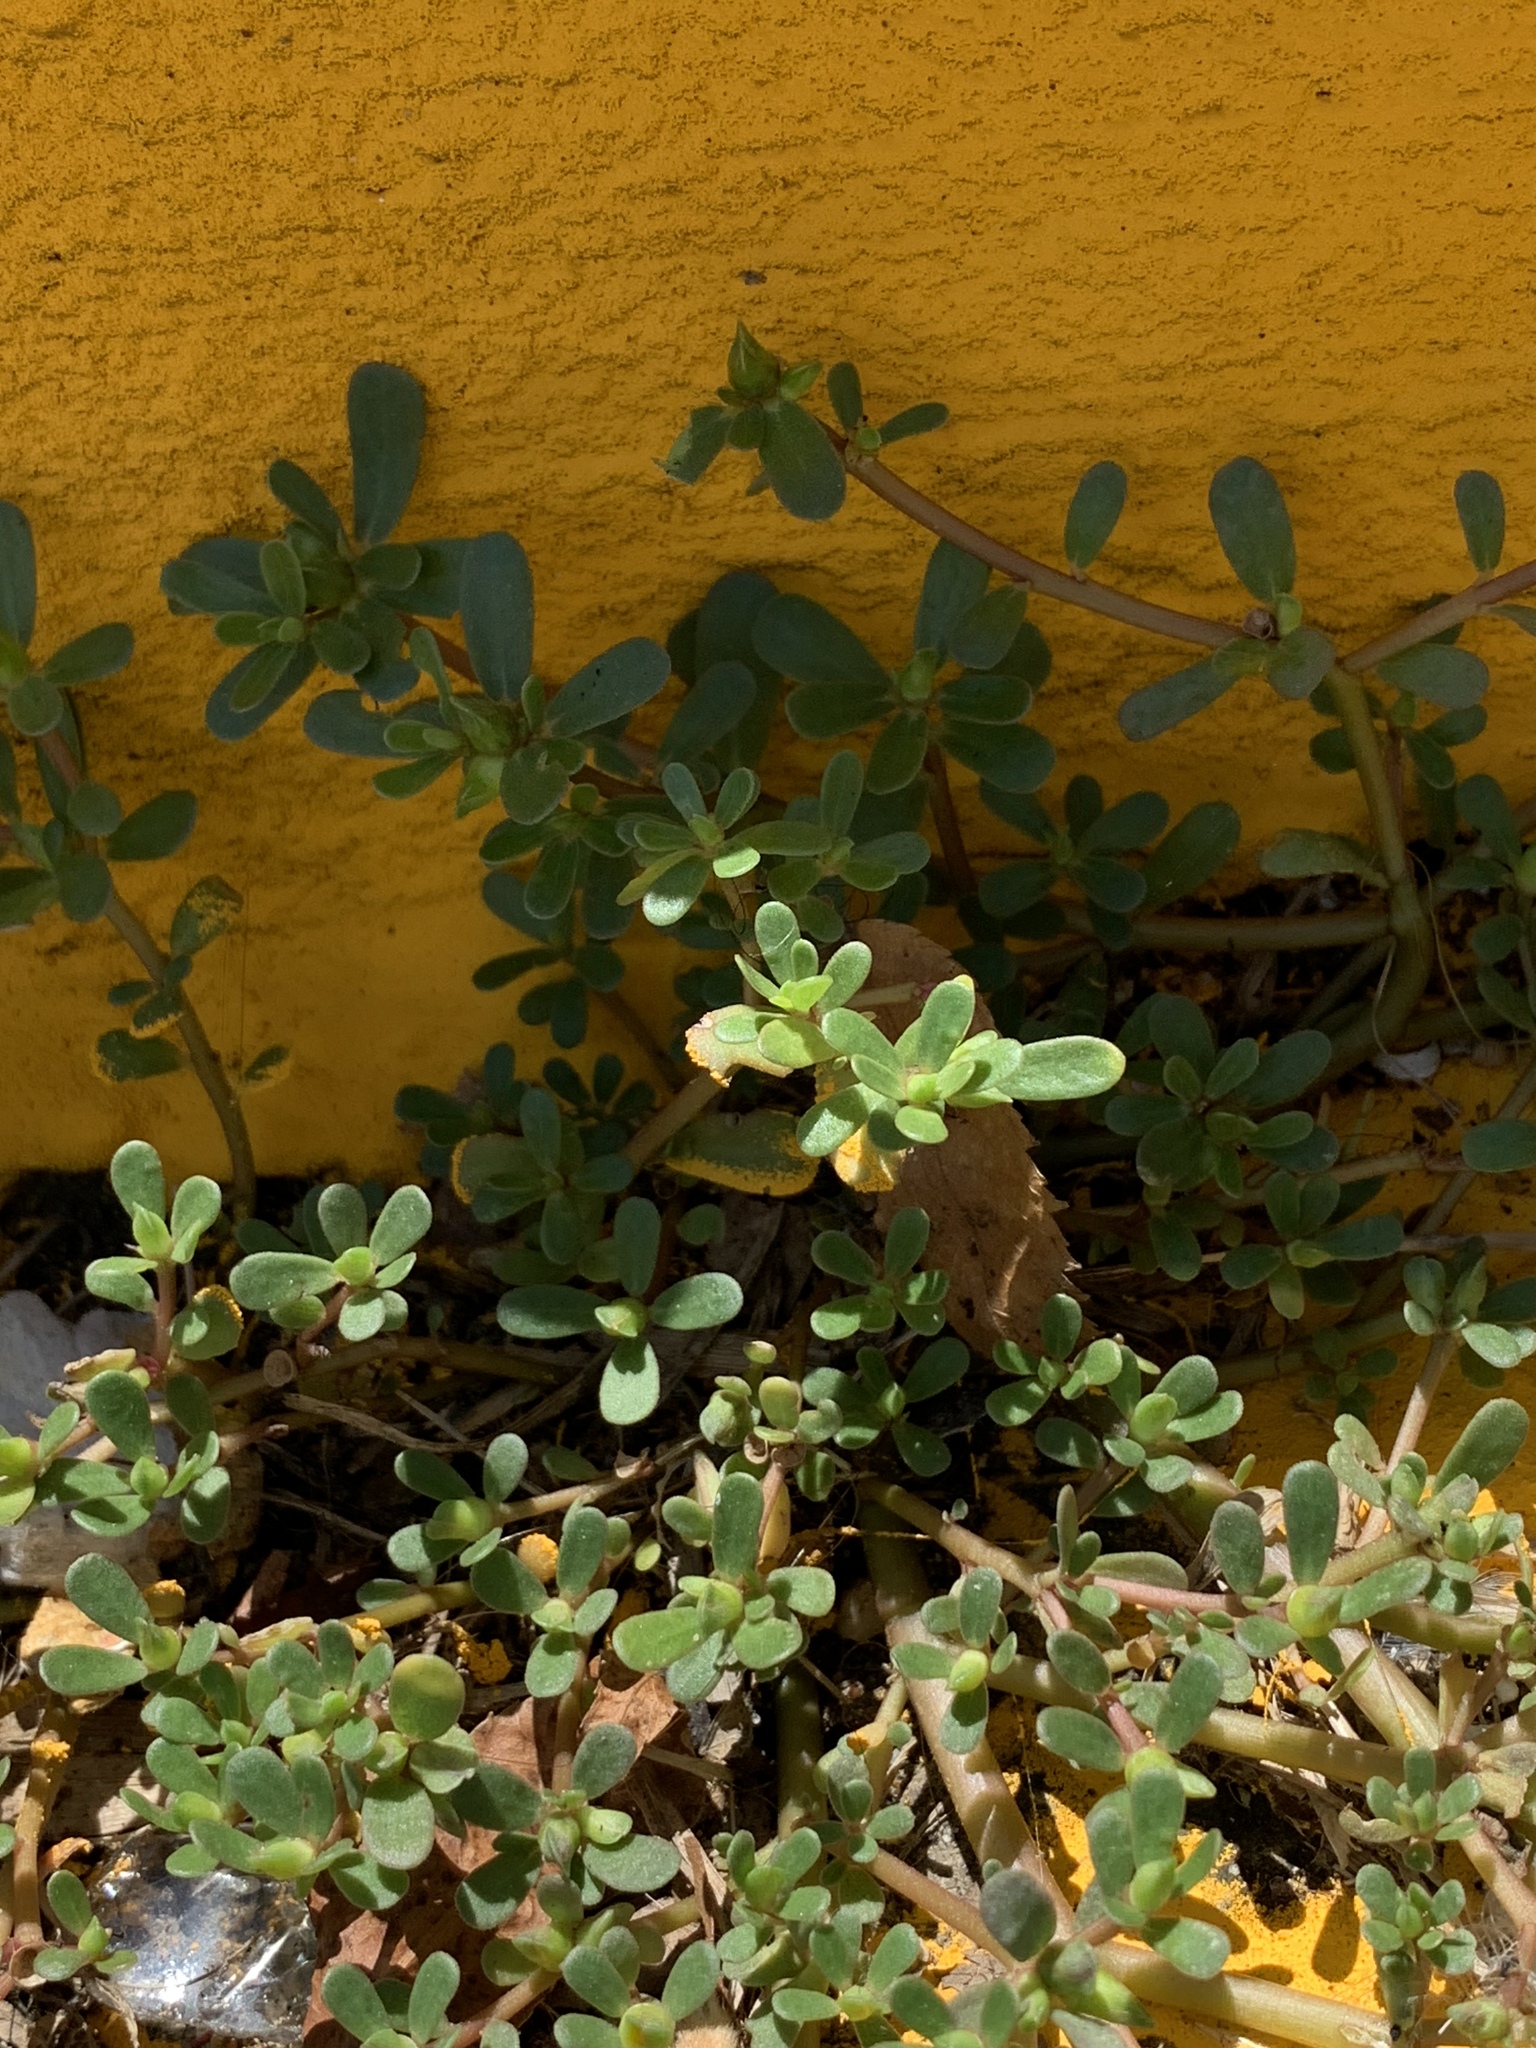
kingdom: Plantae
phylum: Tracheophyta
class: Magnoliopsida
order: Caryophyllales
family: Portulacaceae
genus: Portulaca
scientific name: Portulaca oleracea
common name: Common purslane
